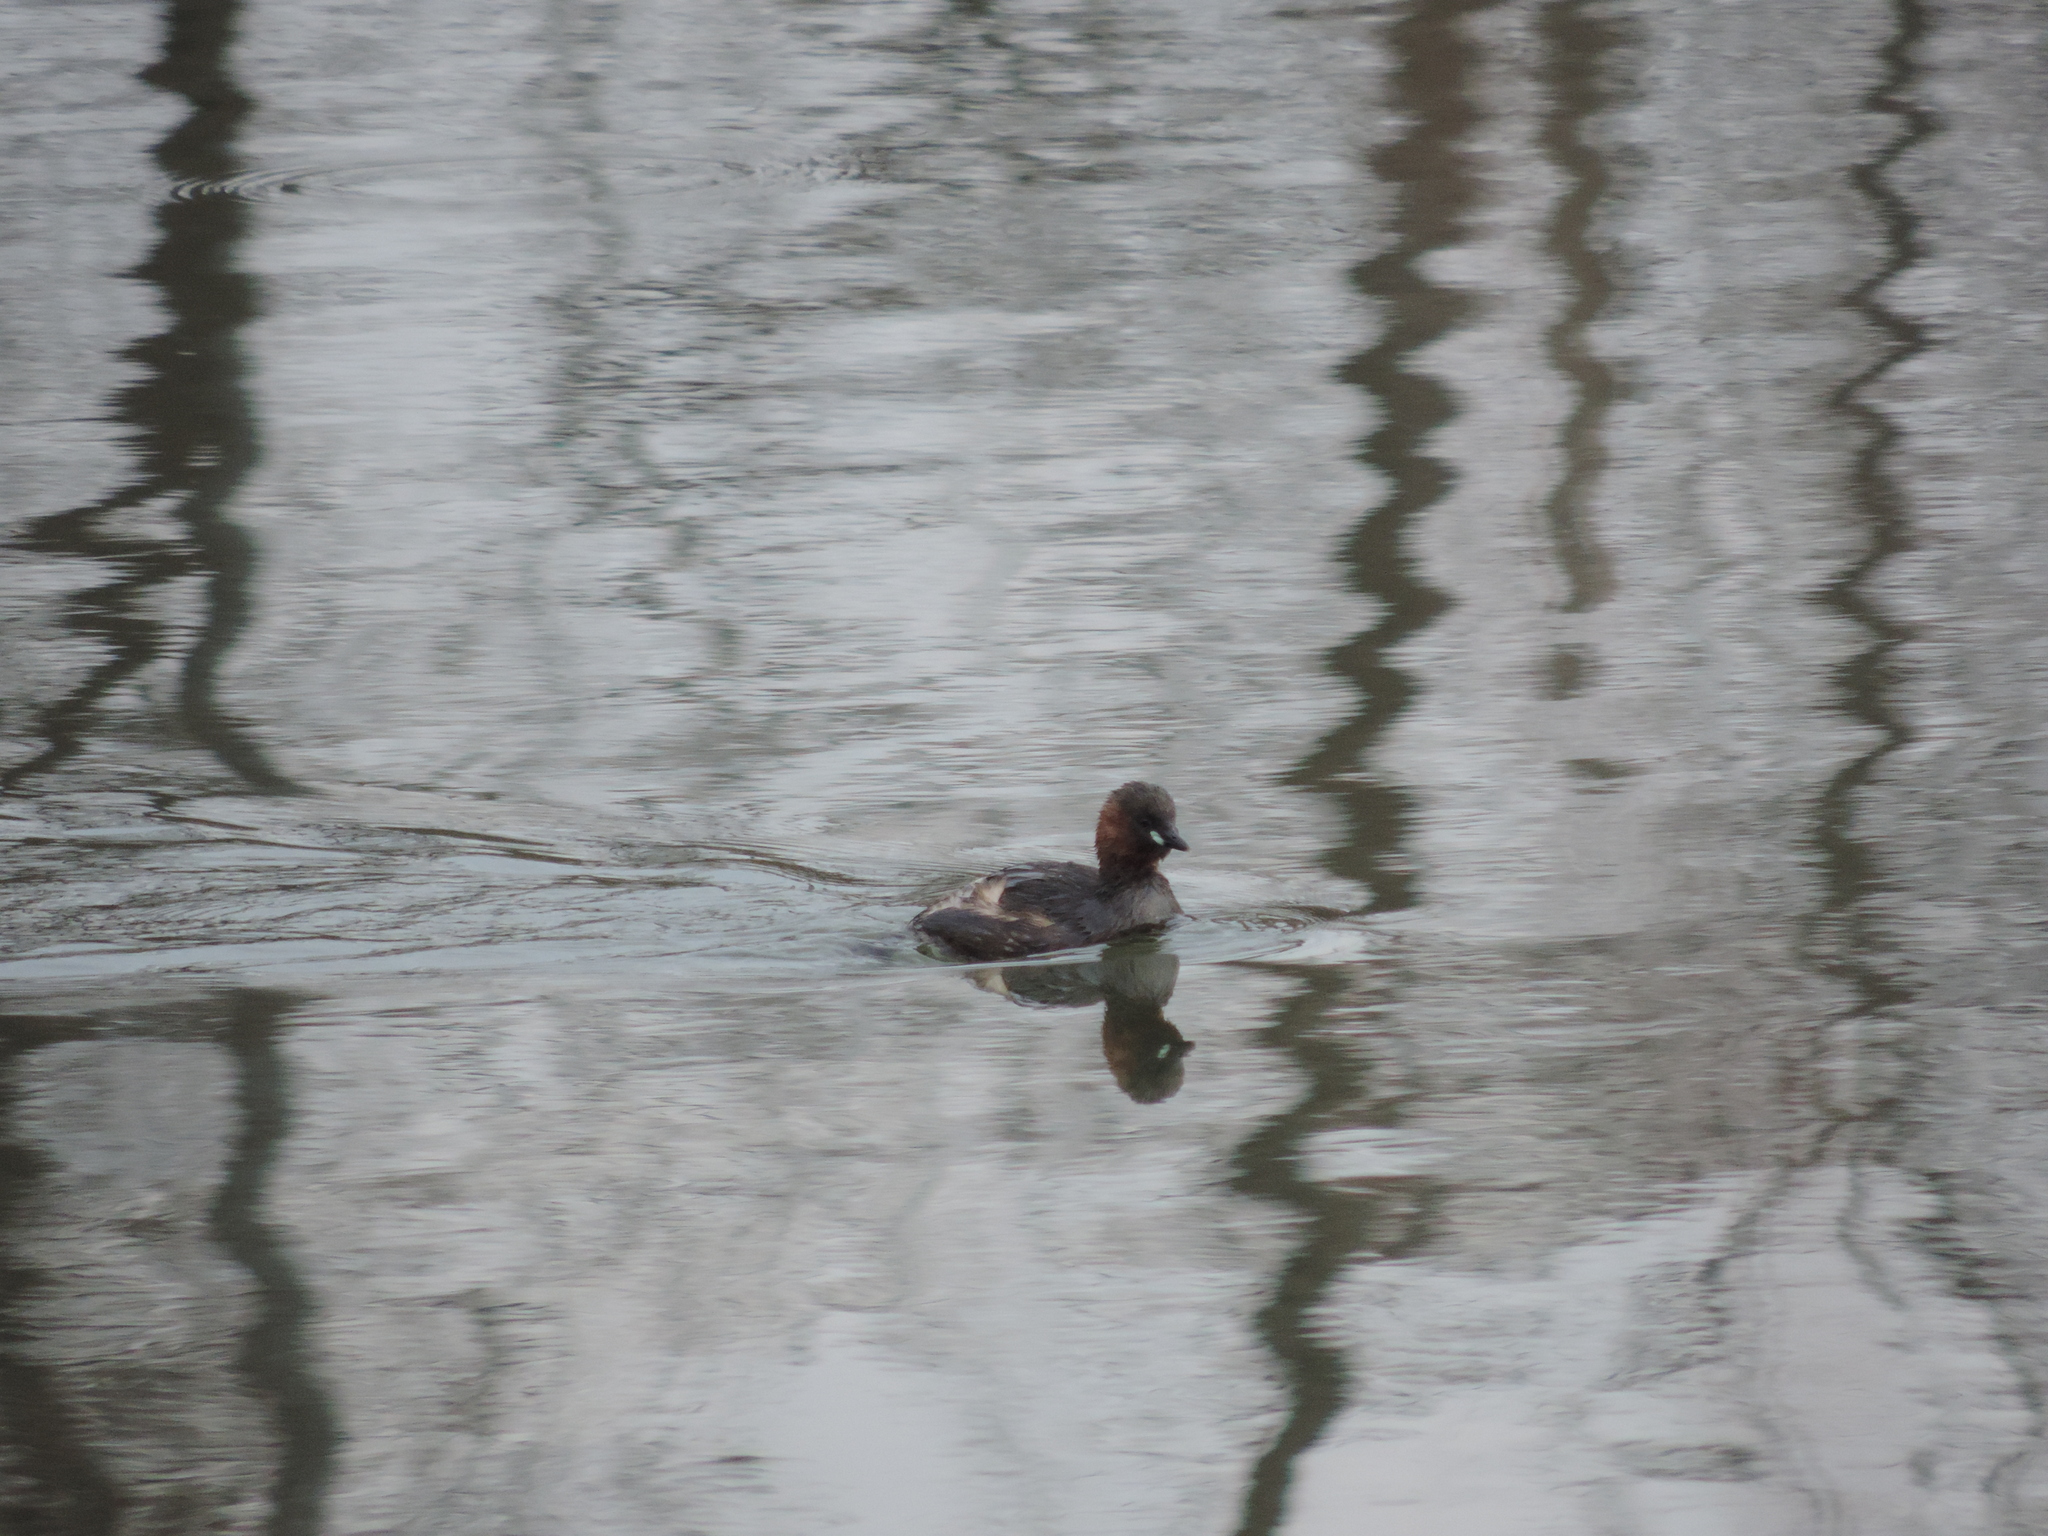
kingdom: Animalia
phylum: Chordata
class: Aves
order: Podicipediformes
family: Podicipedidae
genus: Tachybaptus
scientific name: Tachybaptus ruficollis
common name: Little grebe
